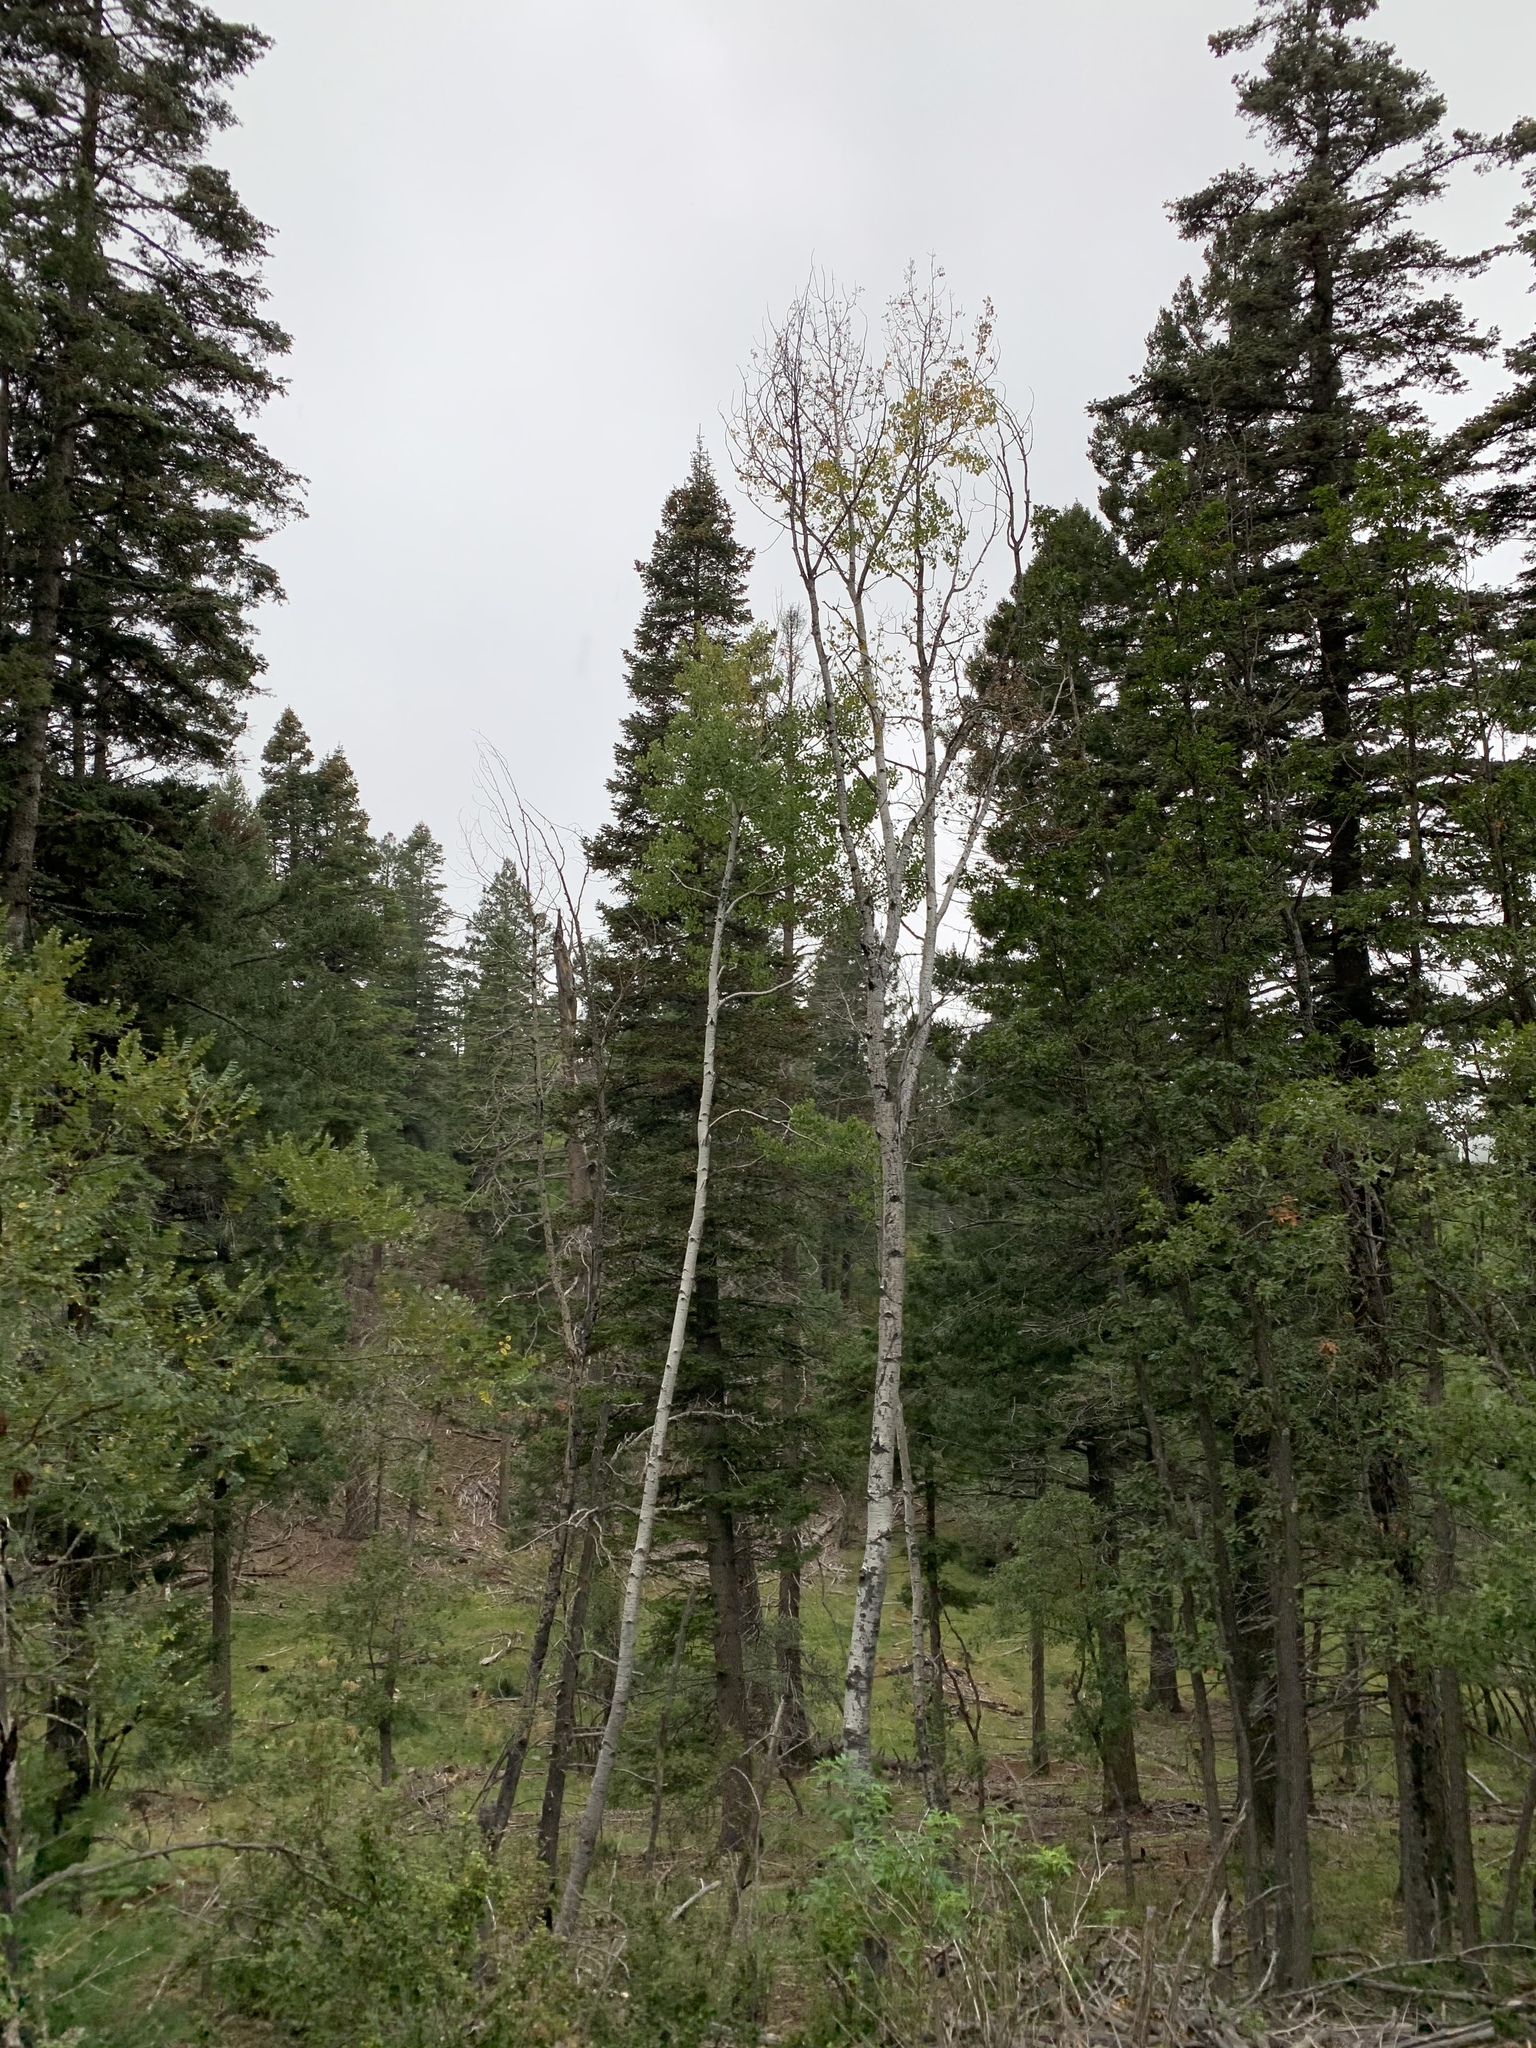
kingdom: Plantae
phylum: Tracheophyta
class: Magnoliopsida
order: Malpighiales
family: Salicaceae
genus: Populus
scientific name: Populus tremuloides
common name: Quaking aspen
